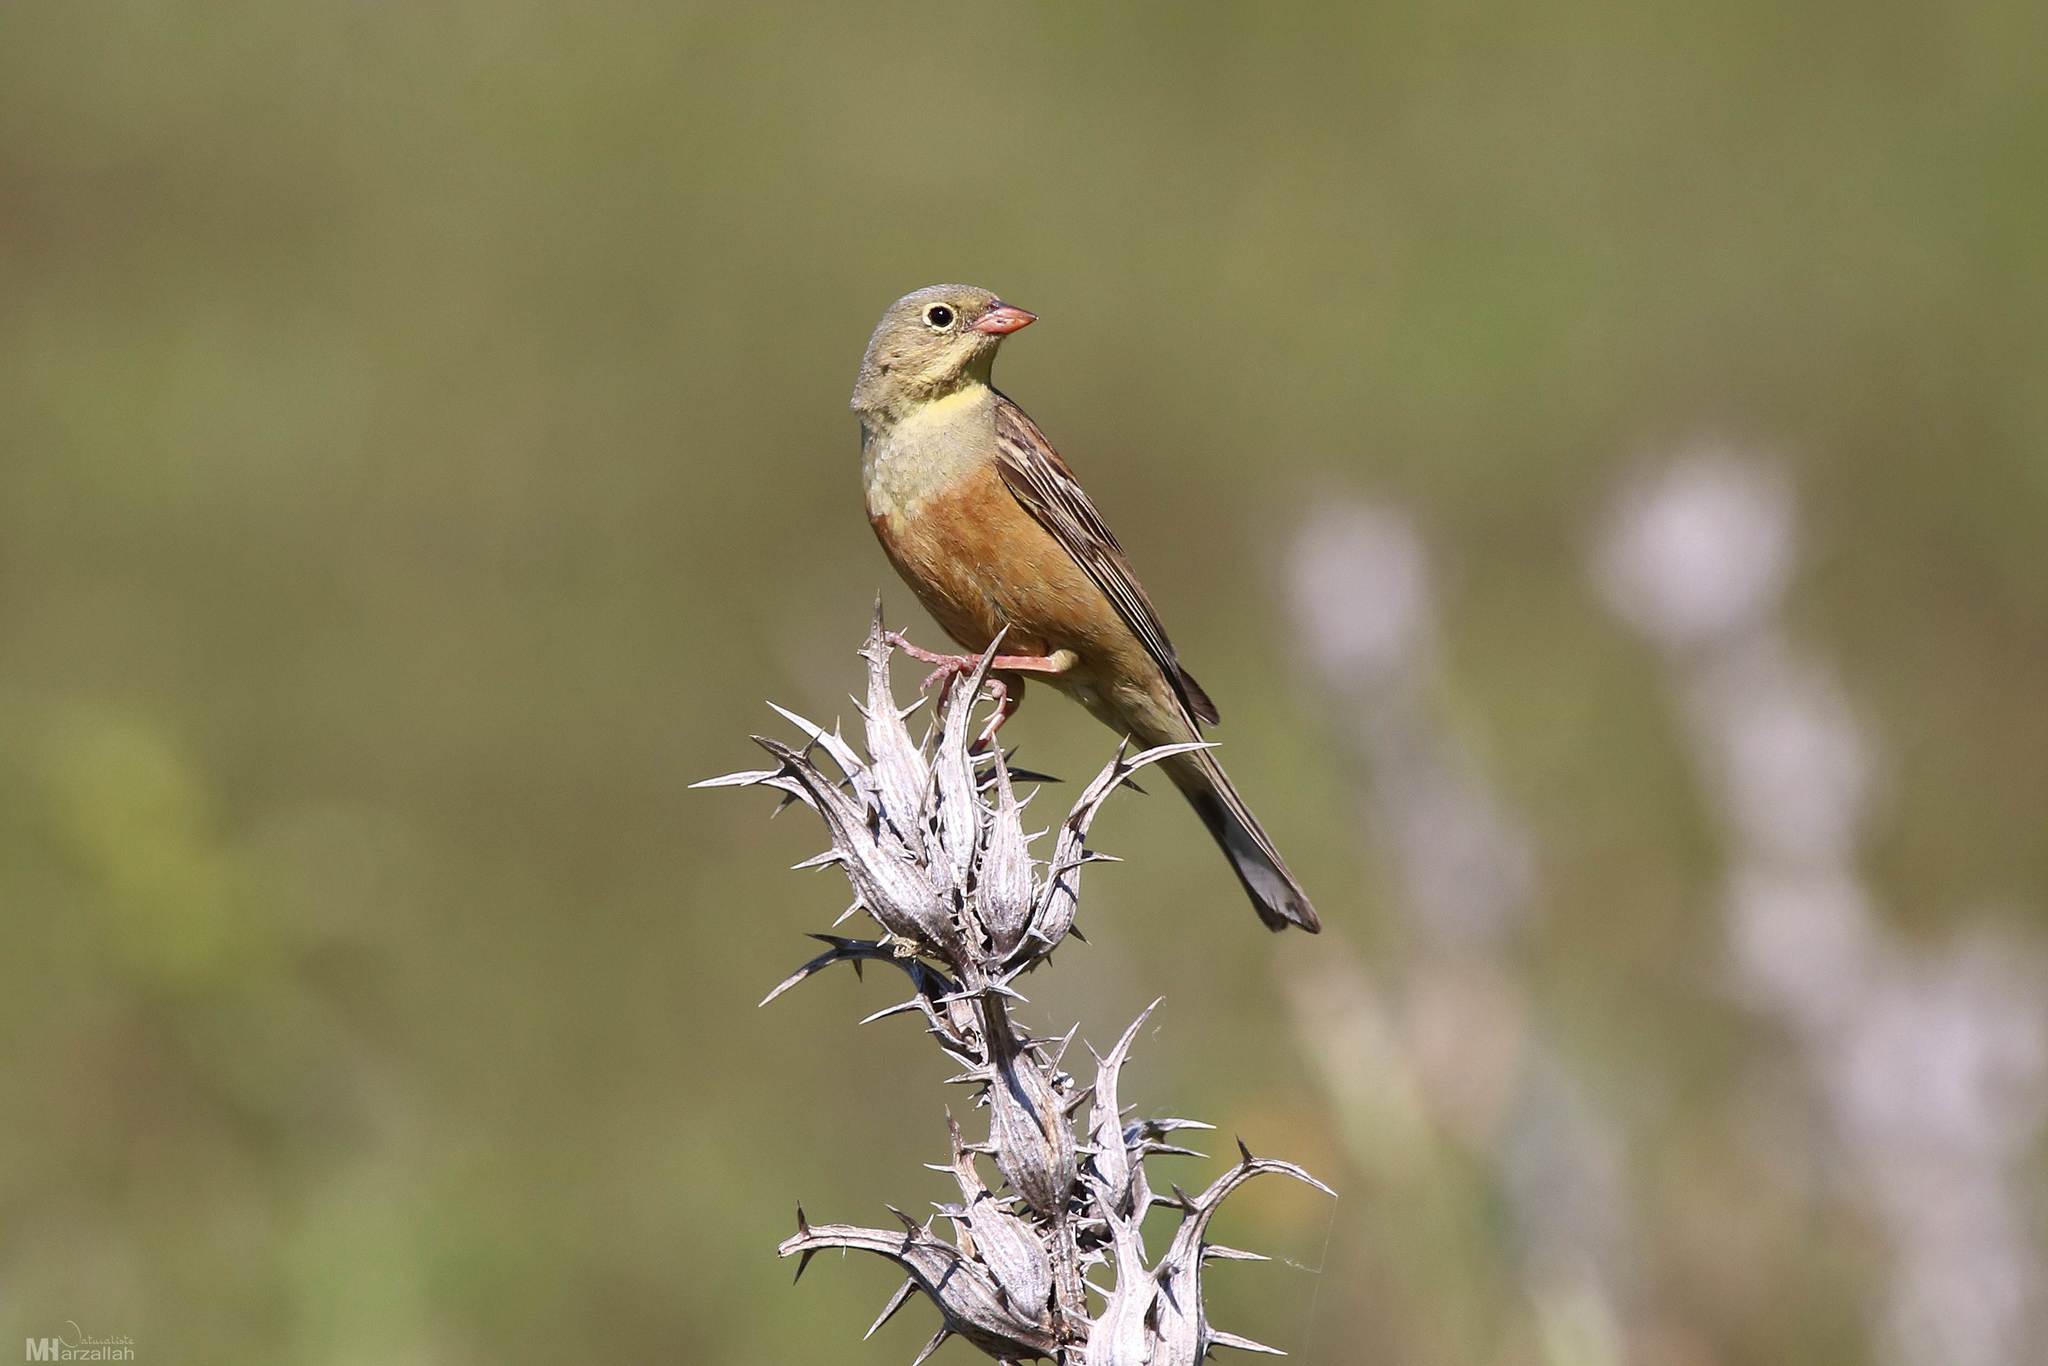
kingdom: Animalia
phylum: Chordata
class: Aves
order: Passeriformes
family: Emberizidae
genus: Emberiza
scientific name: Emberiza hortulana
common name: Ortolan bunting
